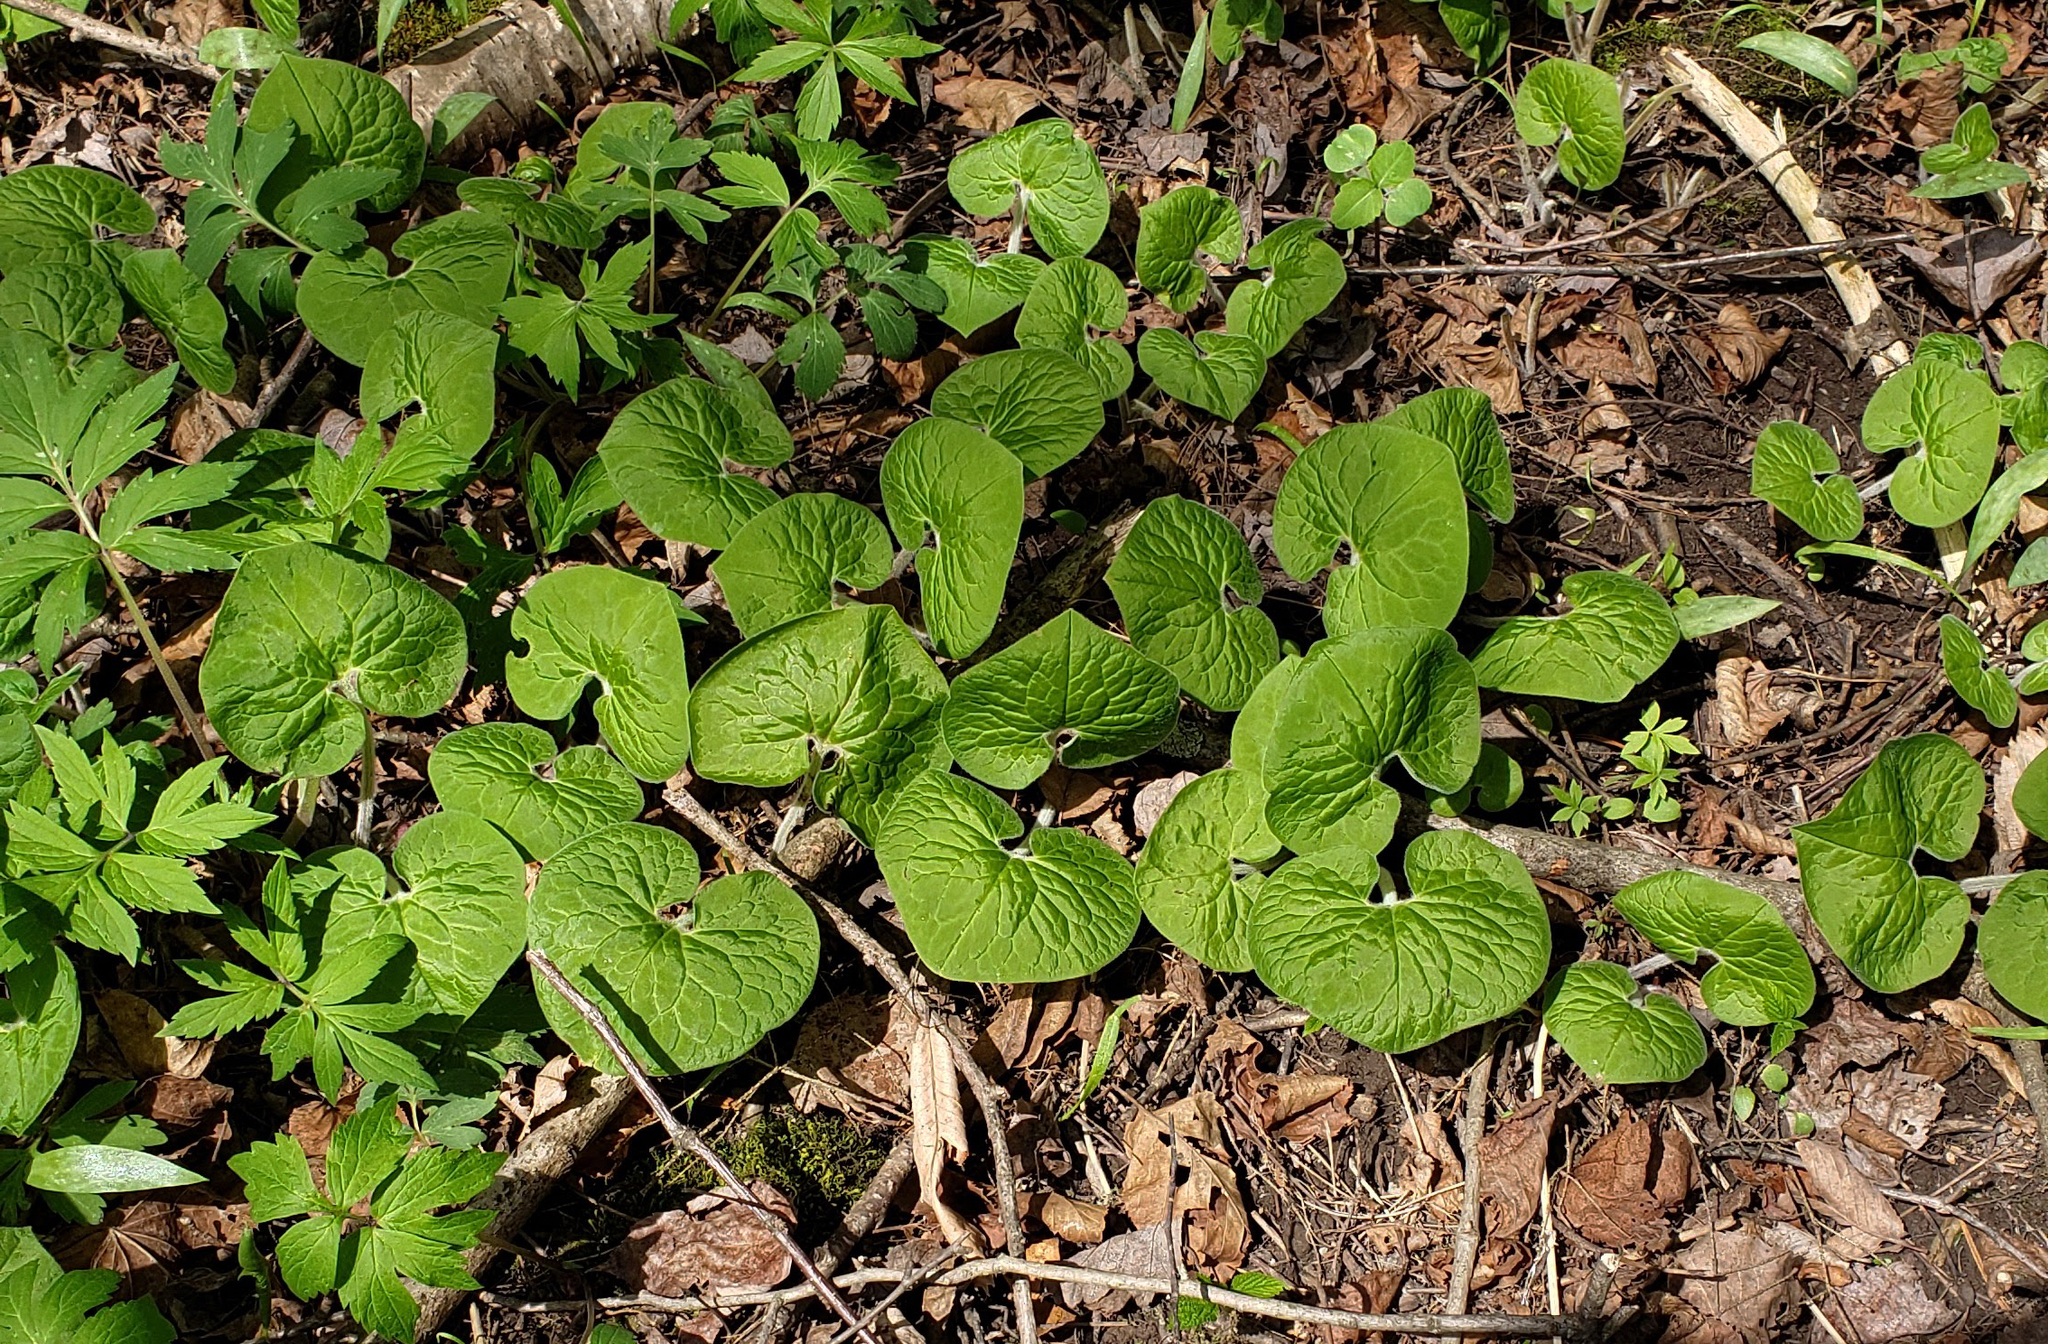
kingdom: Plantae
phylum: Tracheophyta
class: Magnoliopsida
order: Piperales
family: Aristolochiaceae
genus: Asarum
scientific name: Asarum canadense
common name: Wild ginger
